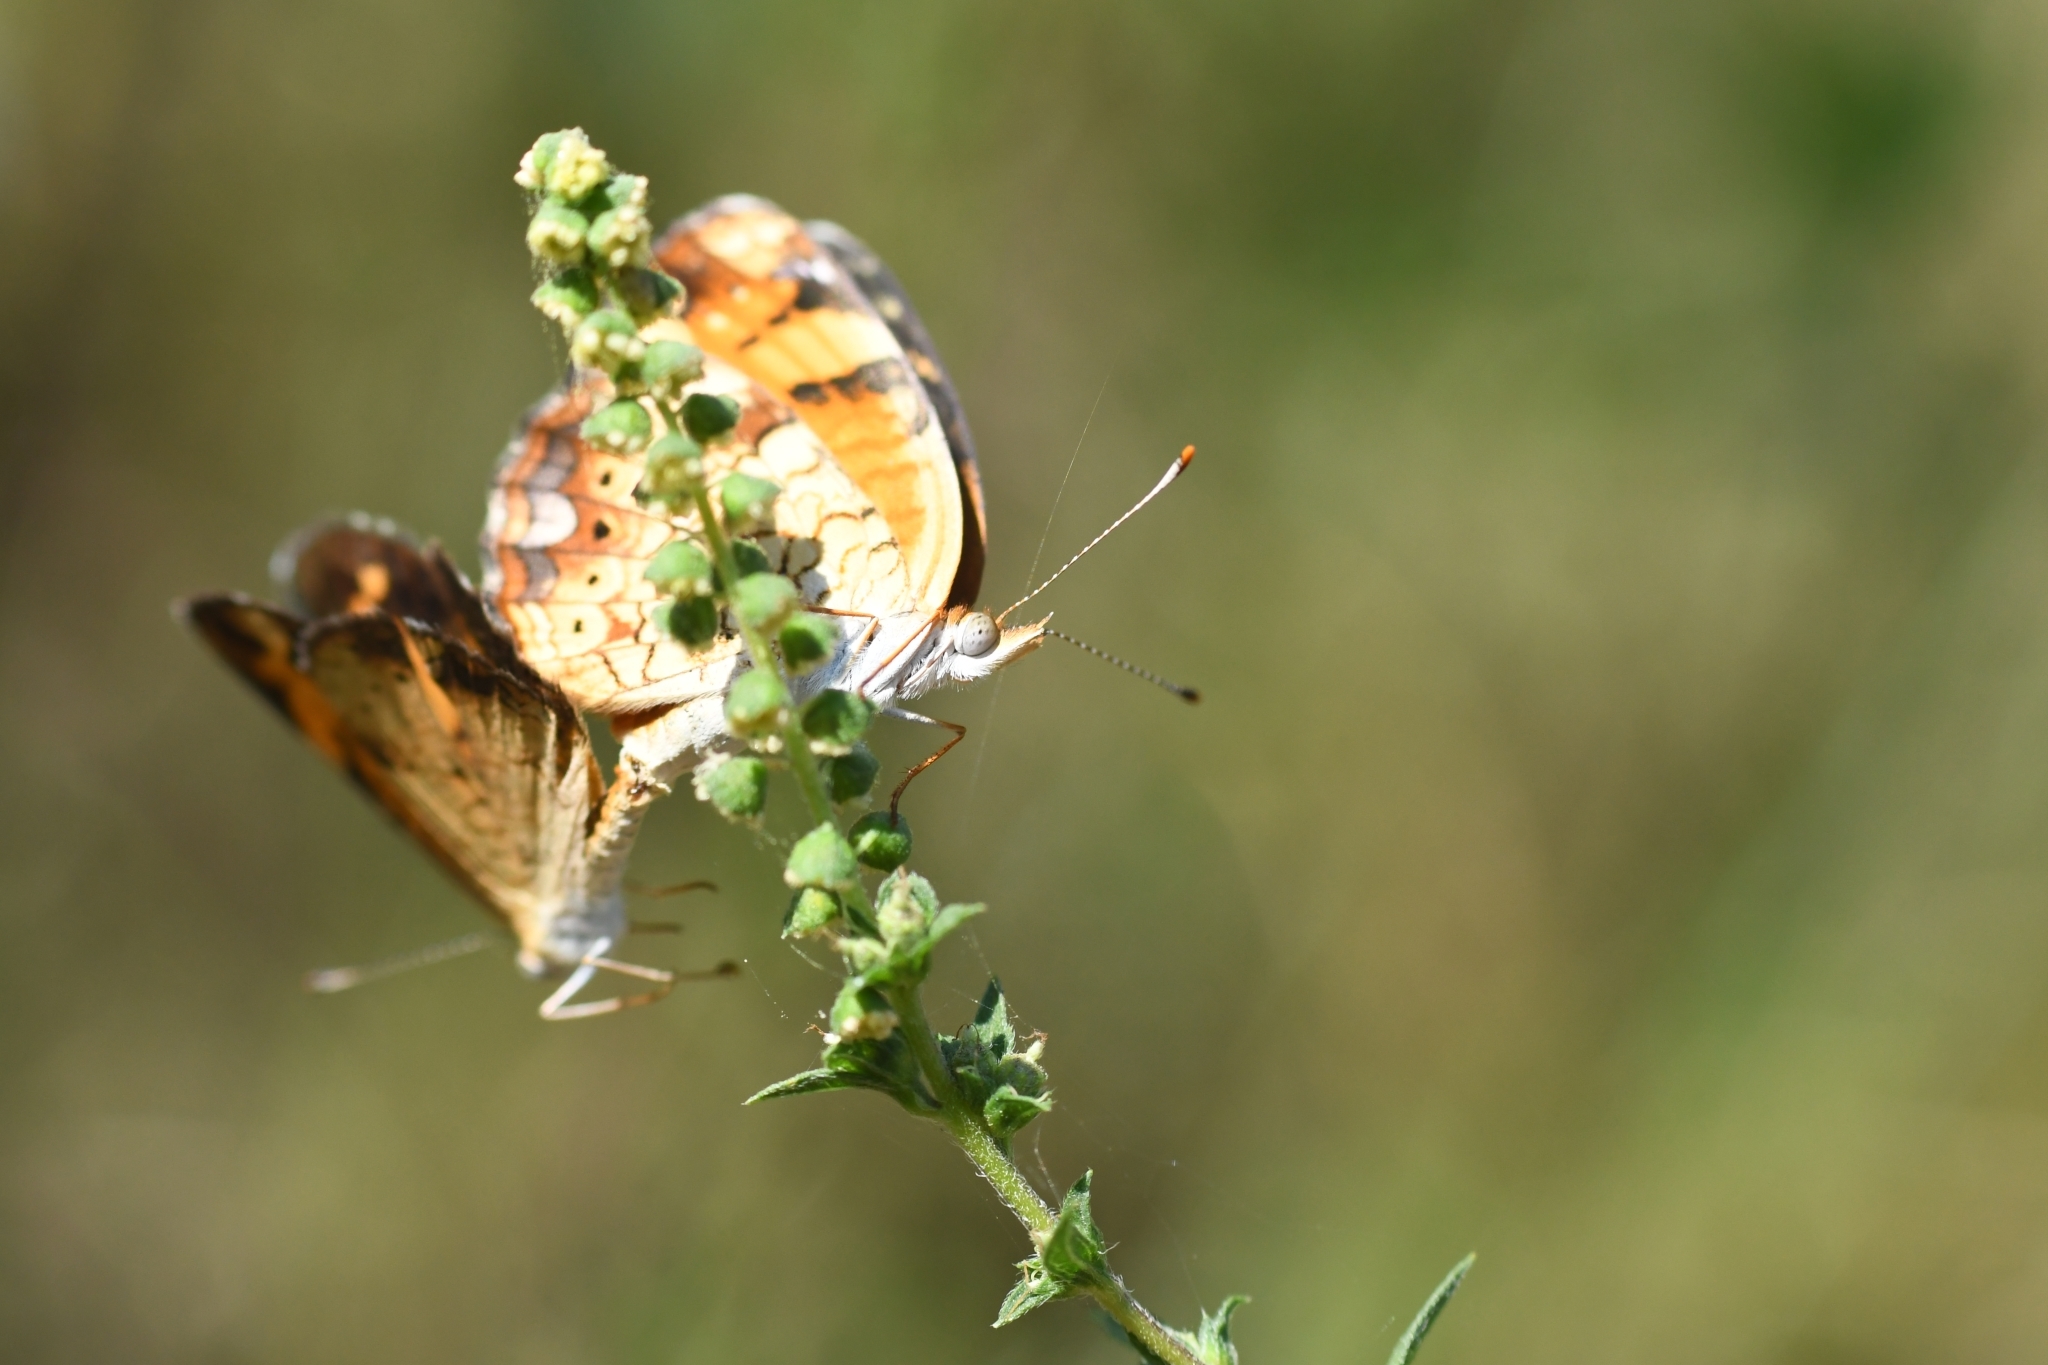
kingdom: Animalia
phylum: Arthropoda
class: Insecta
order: Lepidoptera
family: Nymphalidae
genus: Phyciodes
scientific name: Phyciodes tharos
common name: Pearl crescent
